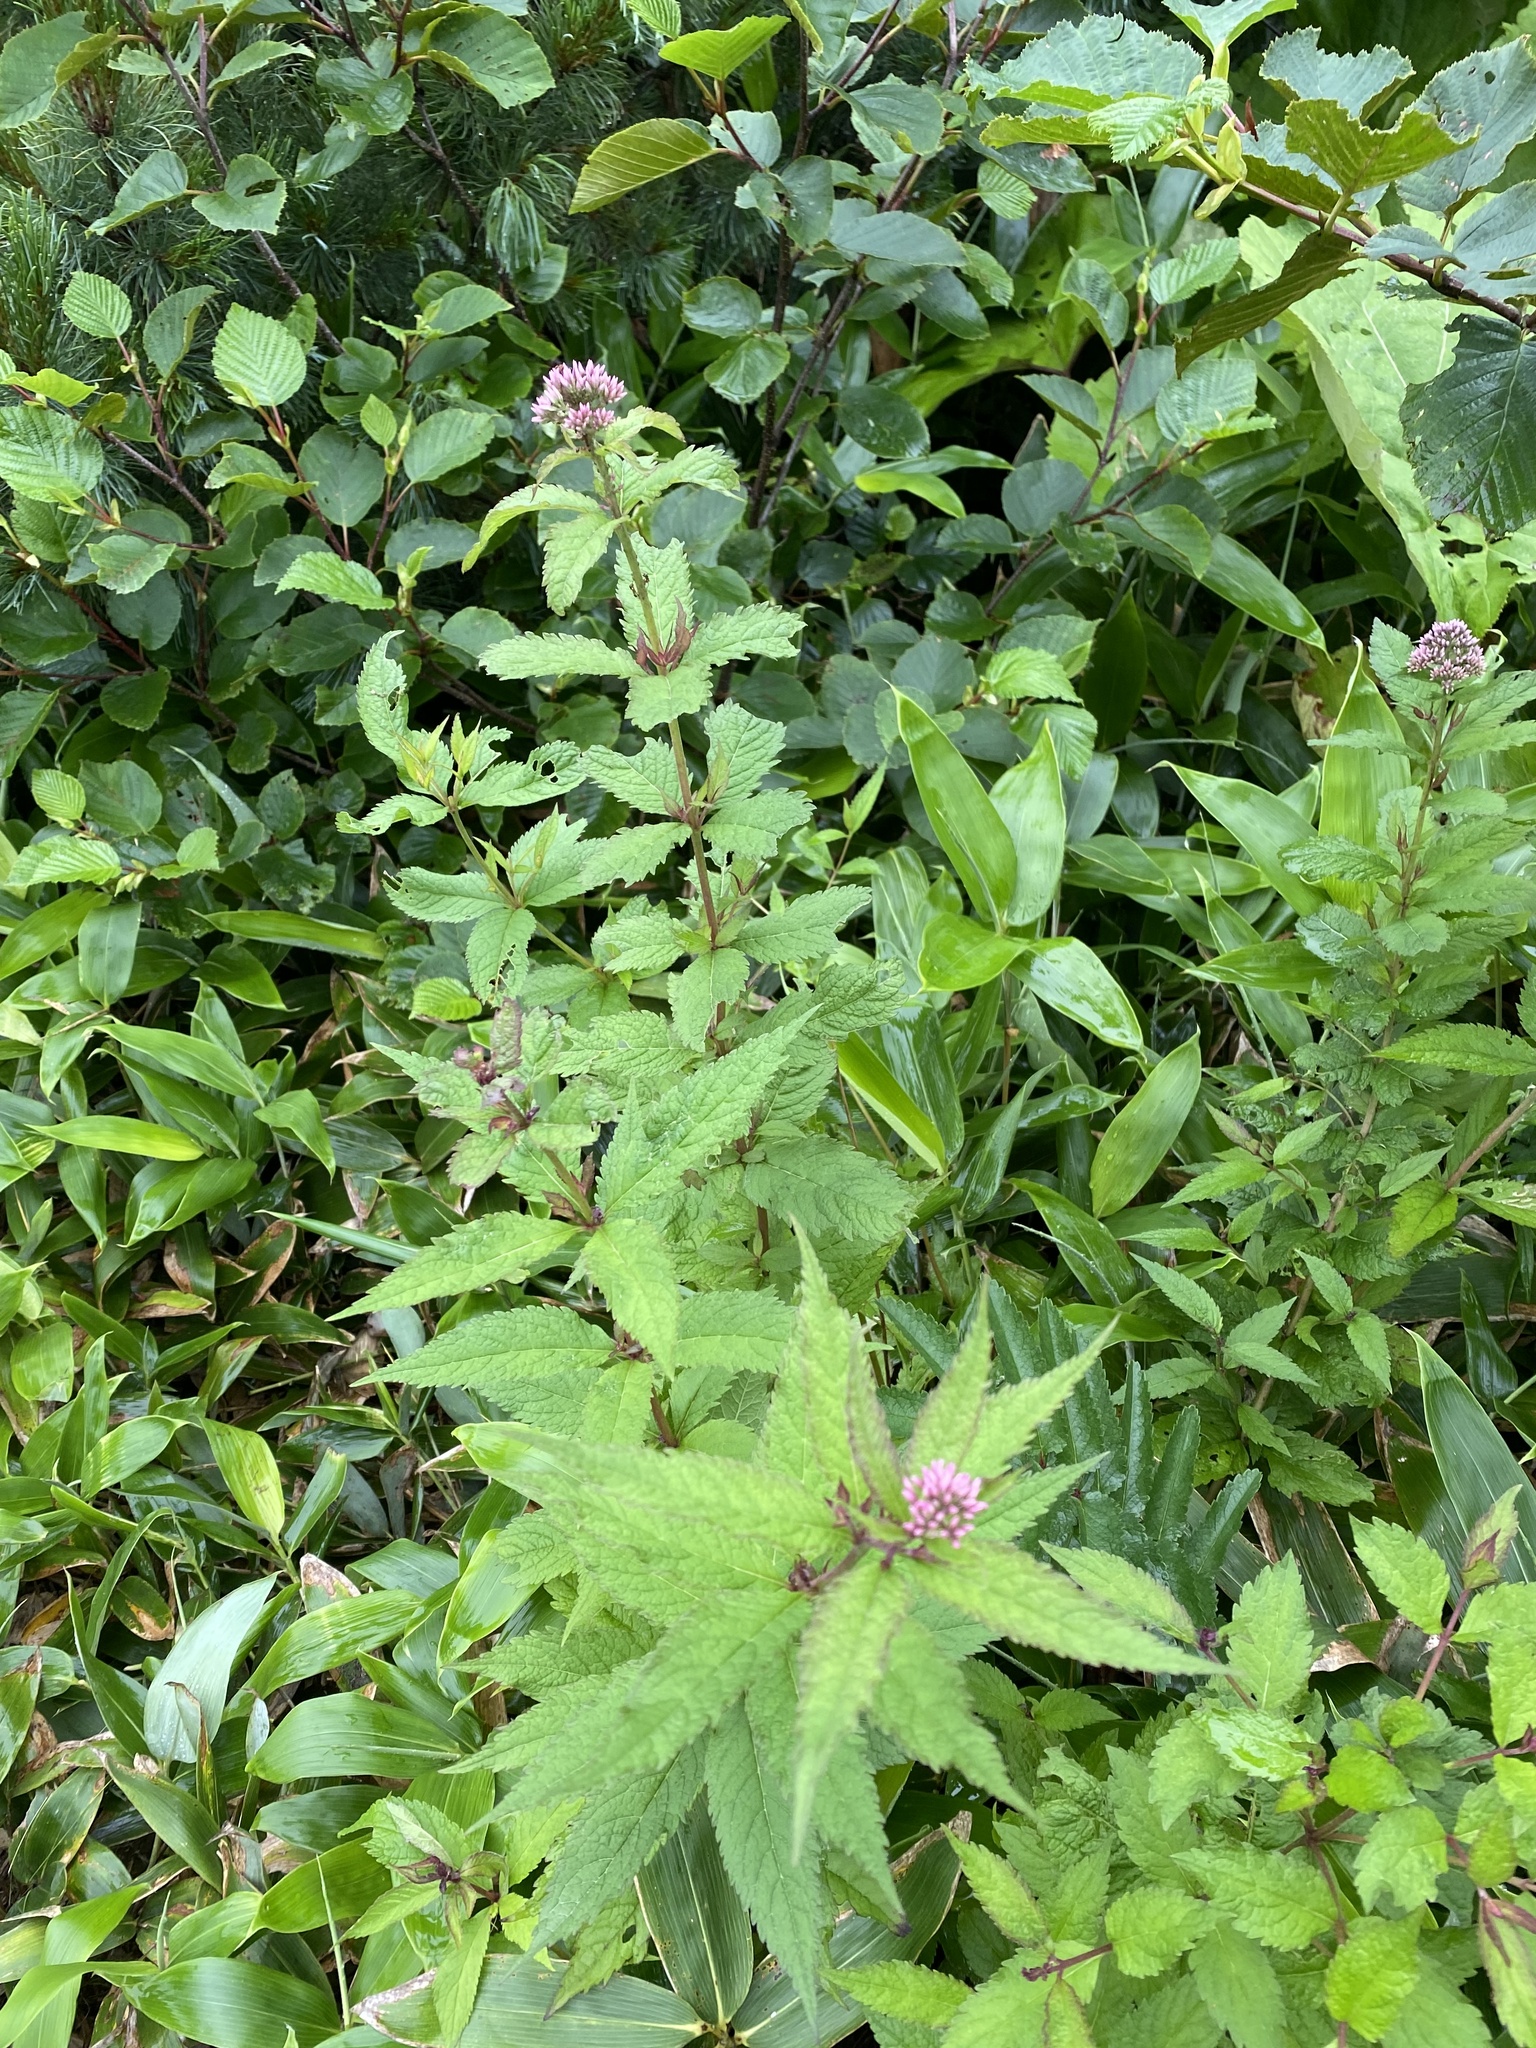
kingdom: Plantae
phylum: Tracheophyta
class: Magnoliopsida
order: Asterales
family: Asteraceae
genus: Eupatorium
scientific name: Eupatorium glehnii
